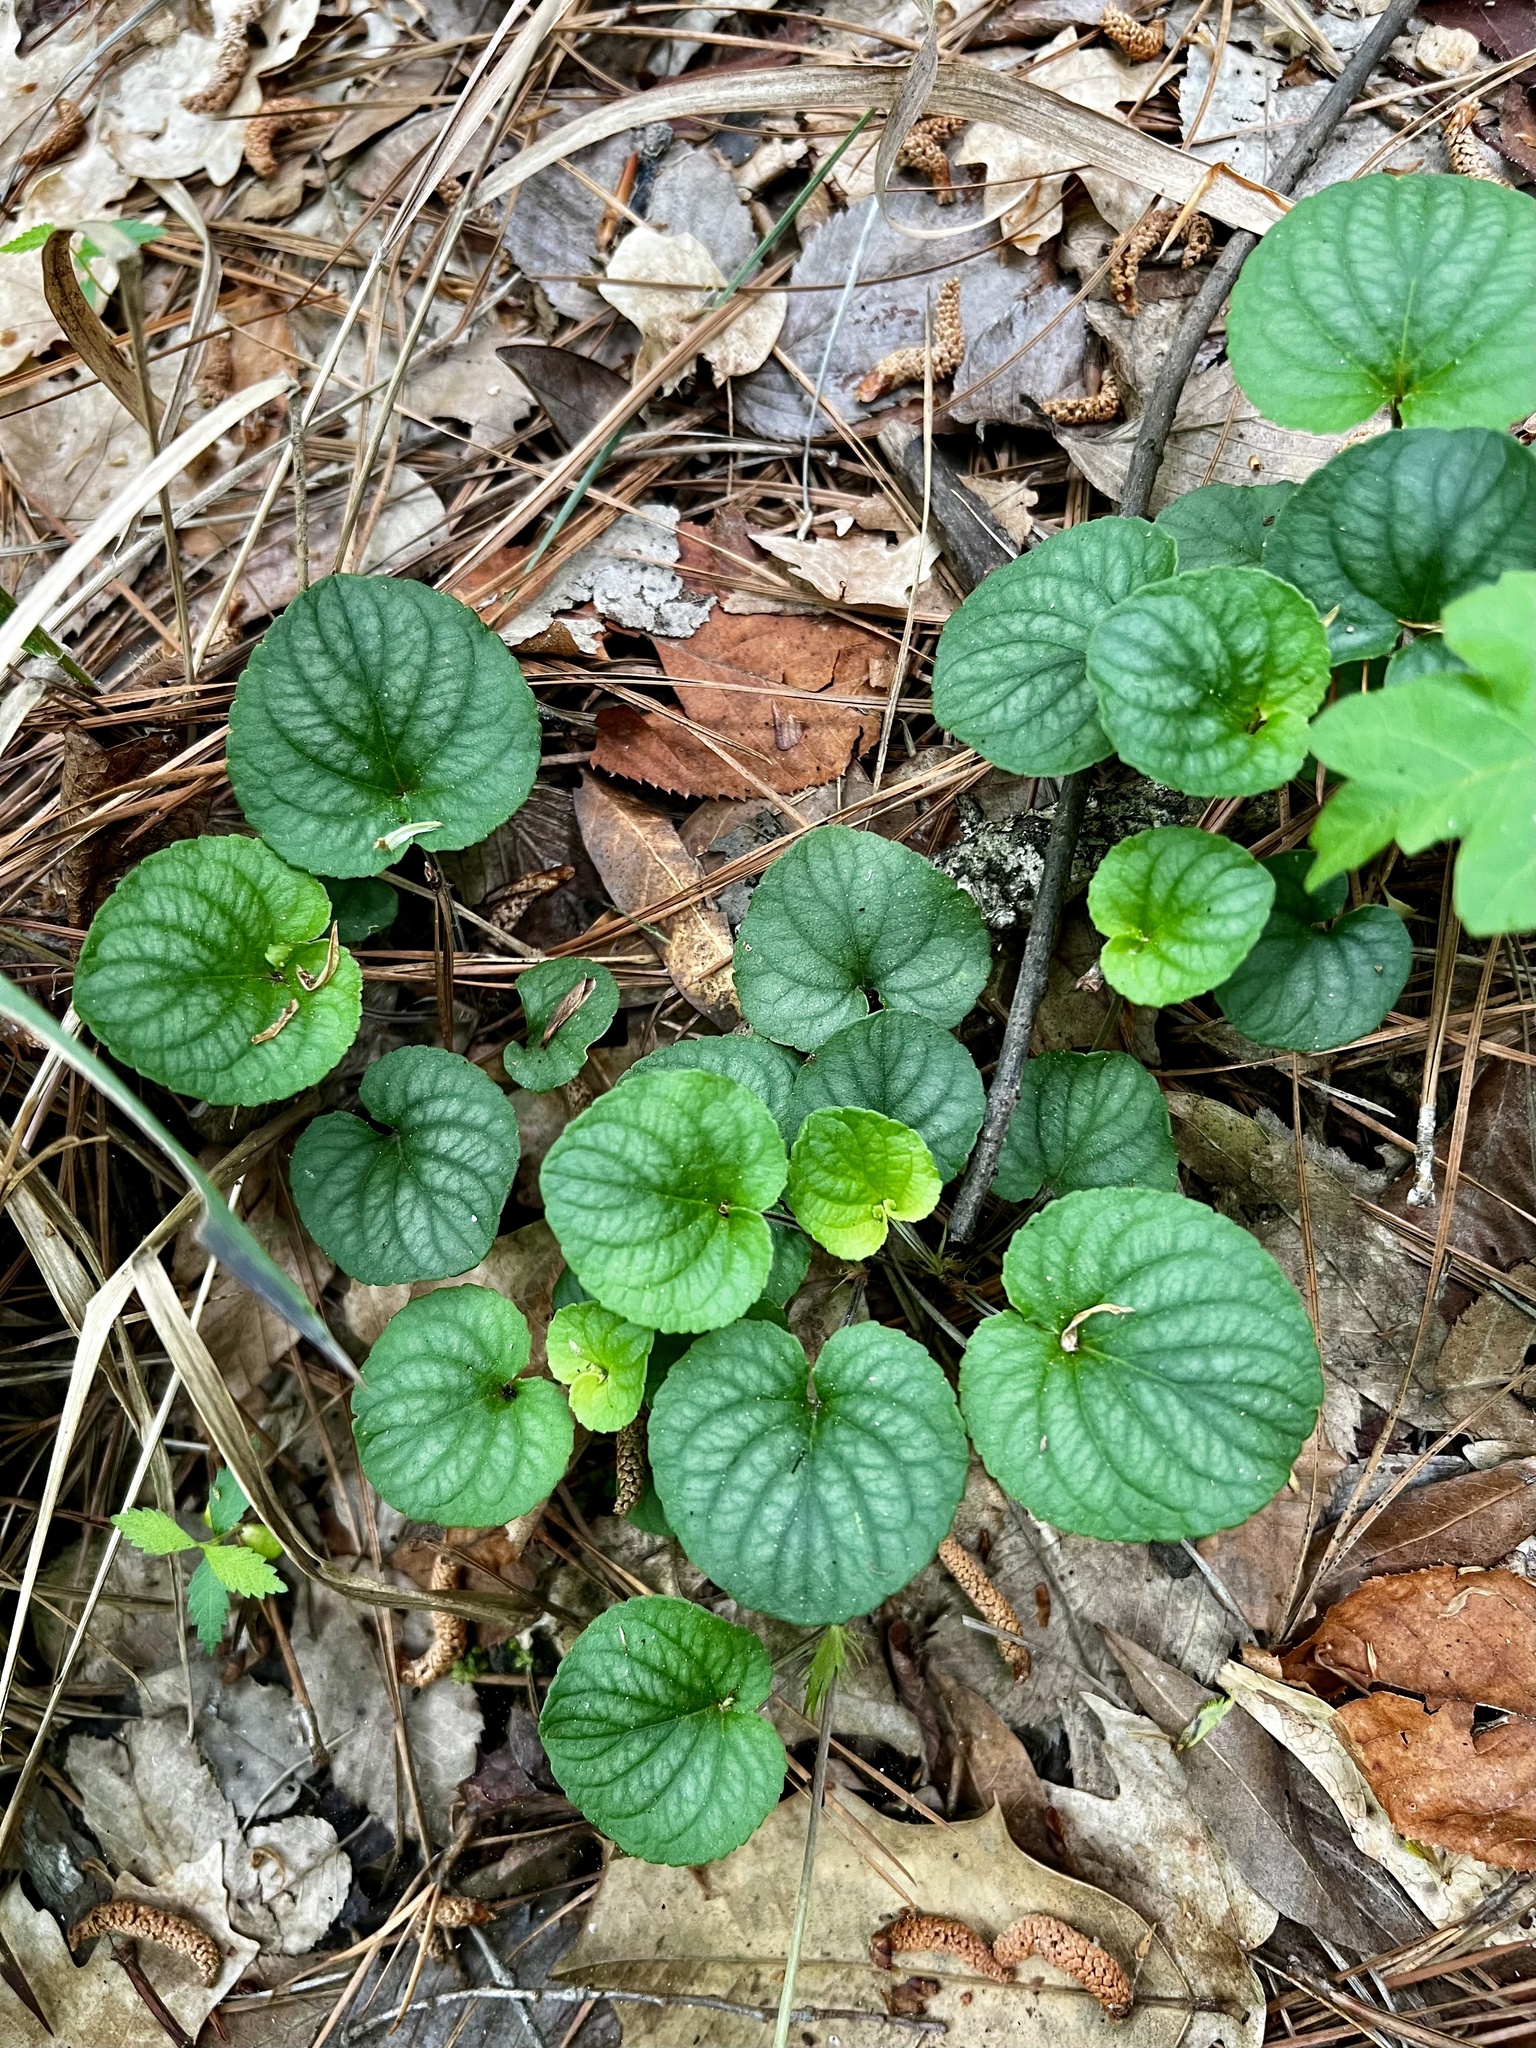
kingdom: Plantae
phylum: Tracheophyta
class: Magnoliopsida
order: Malpighiales
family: Violaceae
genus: Viola
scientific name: Viola walteri
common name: Prostrate southern violet
